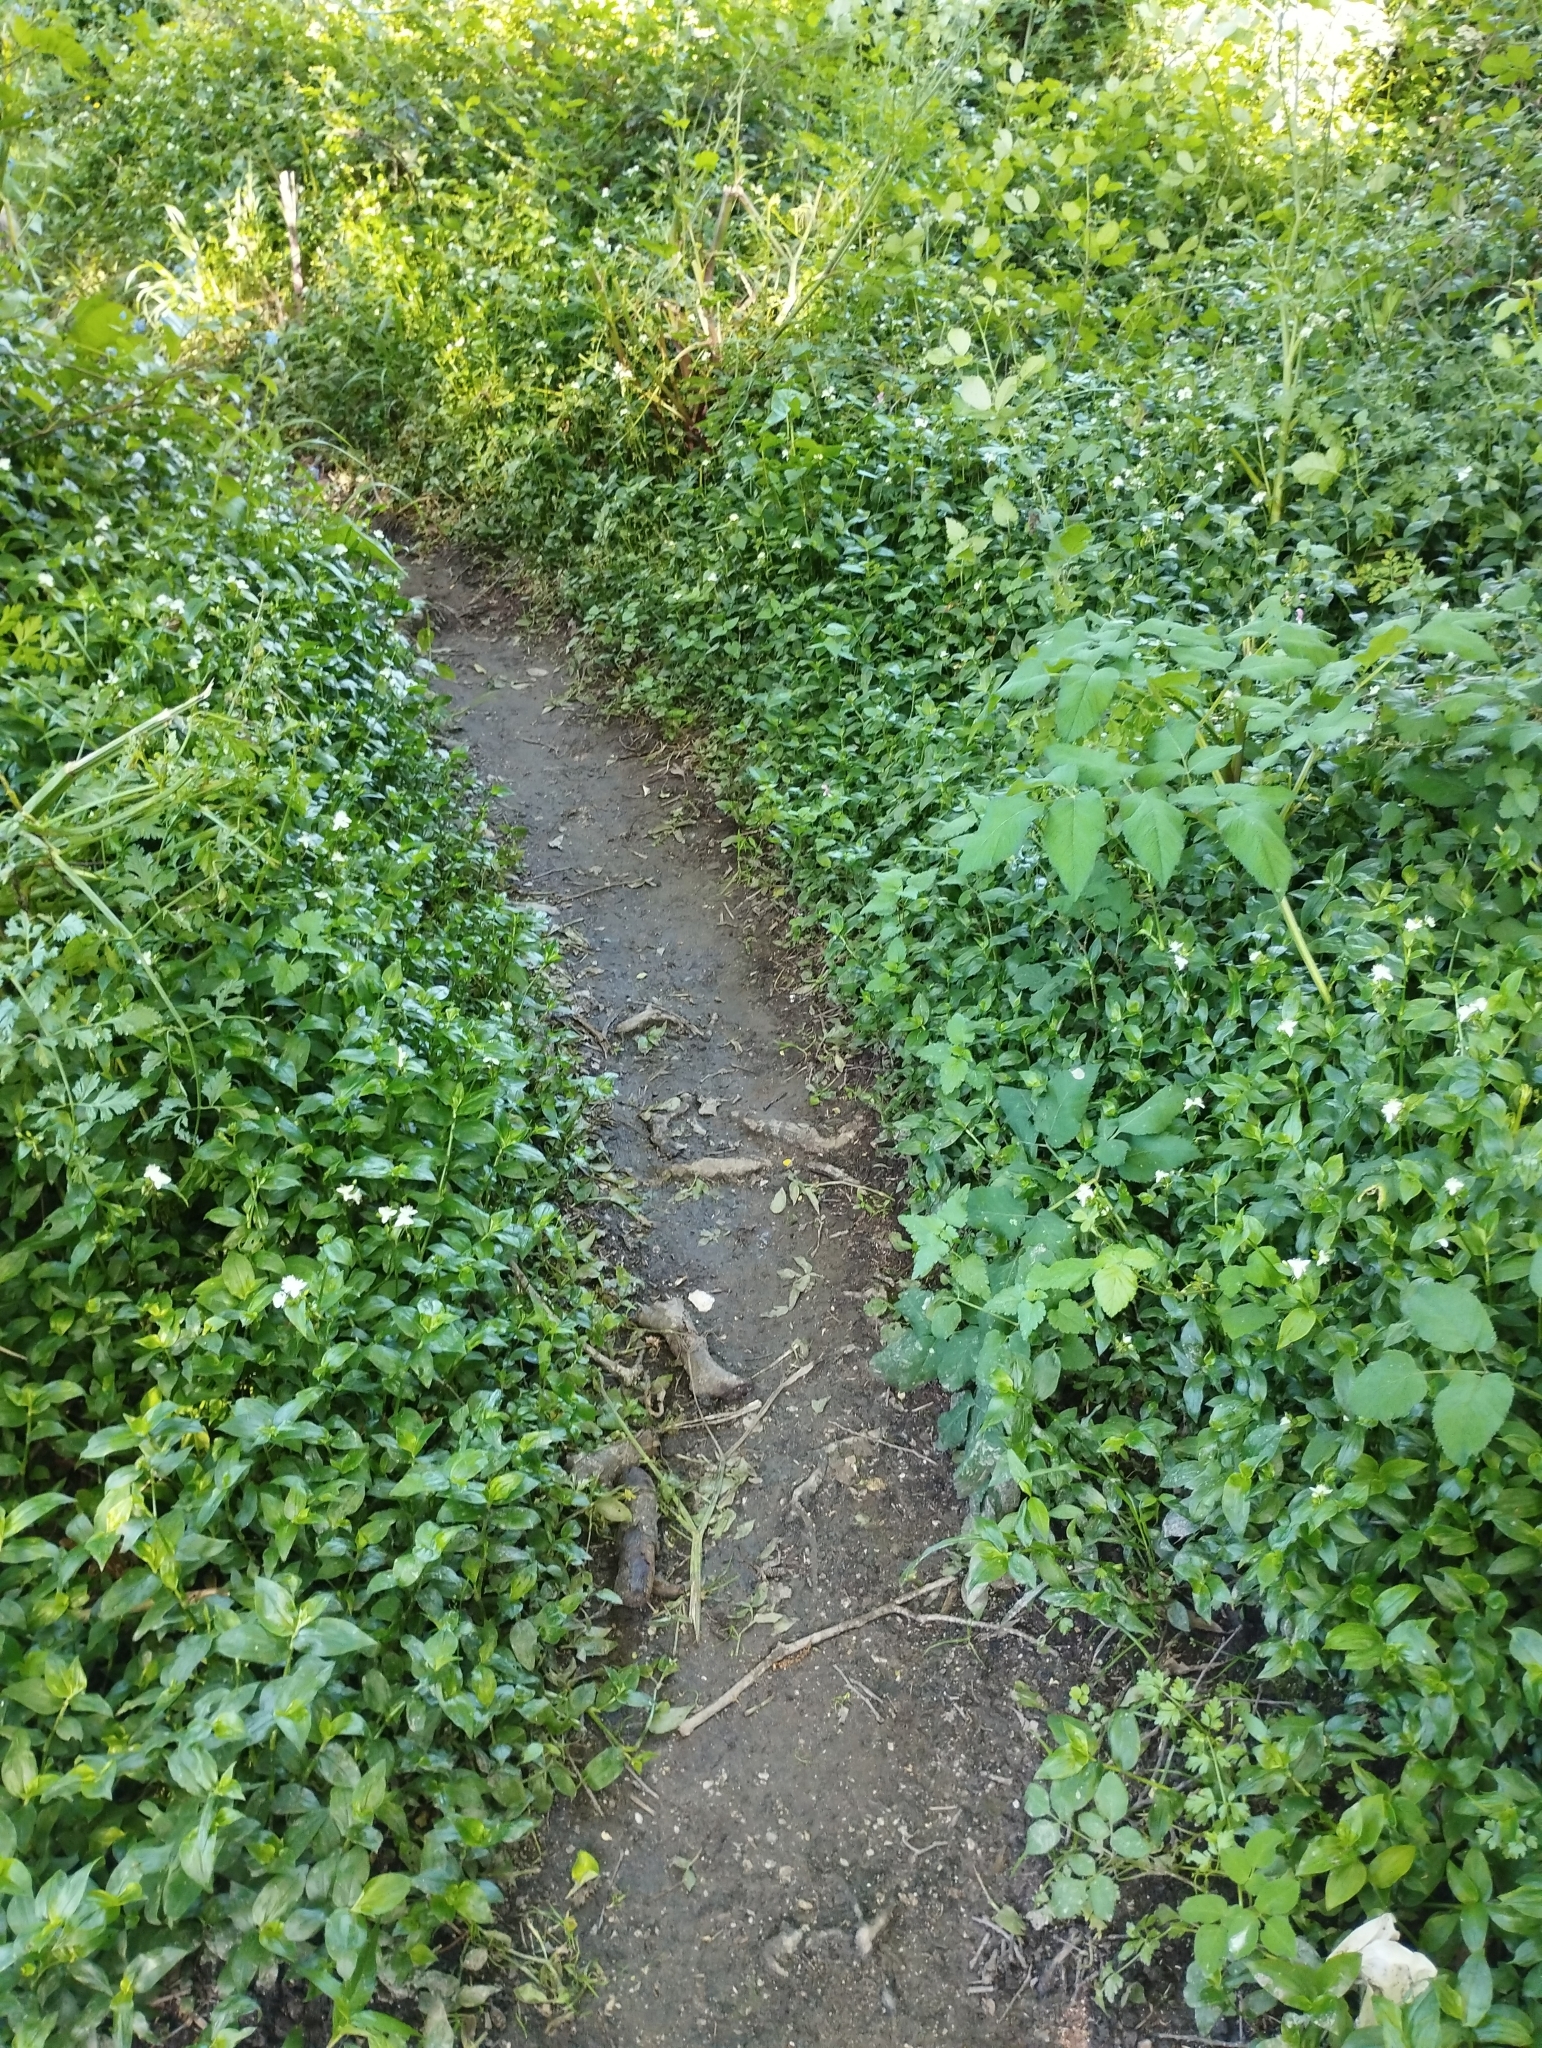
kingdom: Plantae
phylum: Tracheophyta
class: Liliopsida
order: Commelinales
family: Commelinaceae
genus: Tradescantia
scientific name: Tradescantia fluminensis
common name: Wandering-jew
